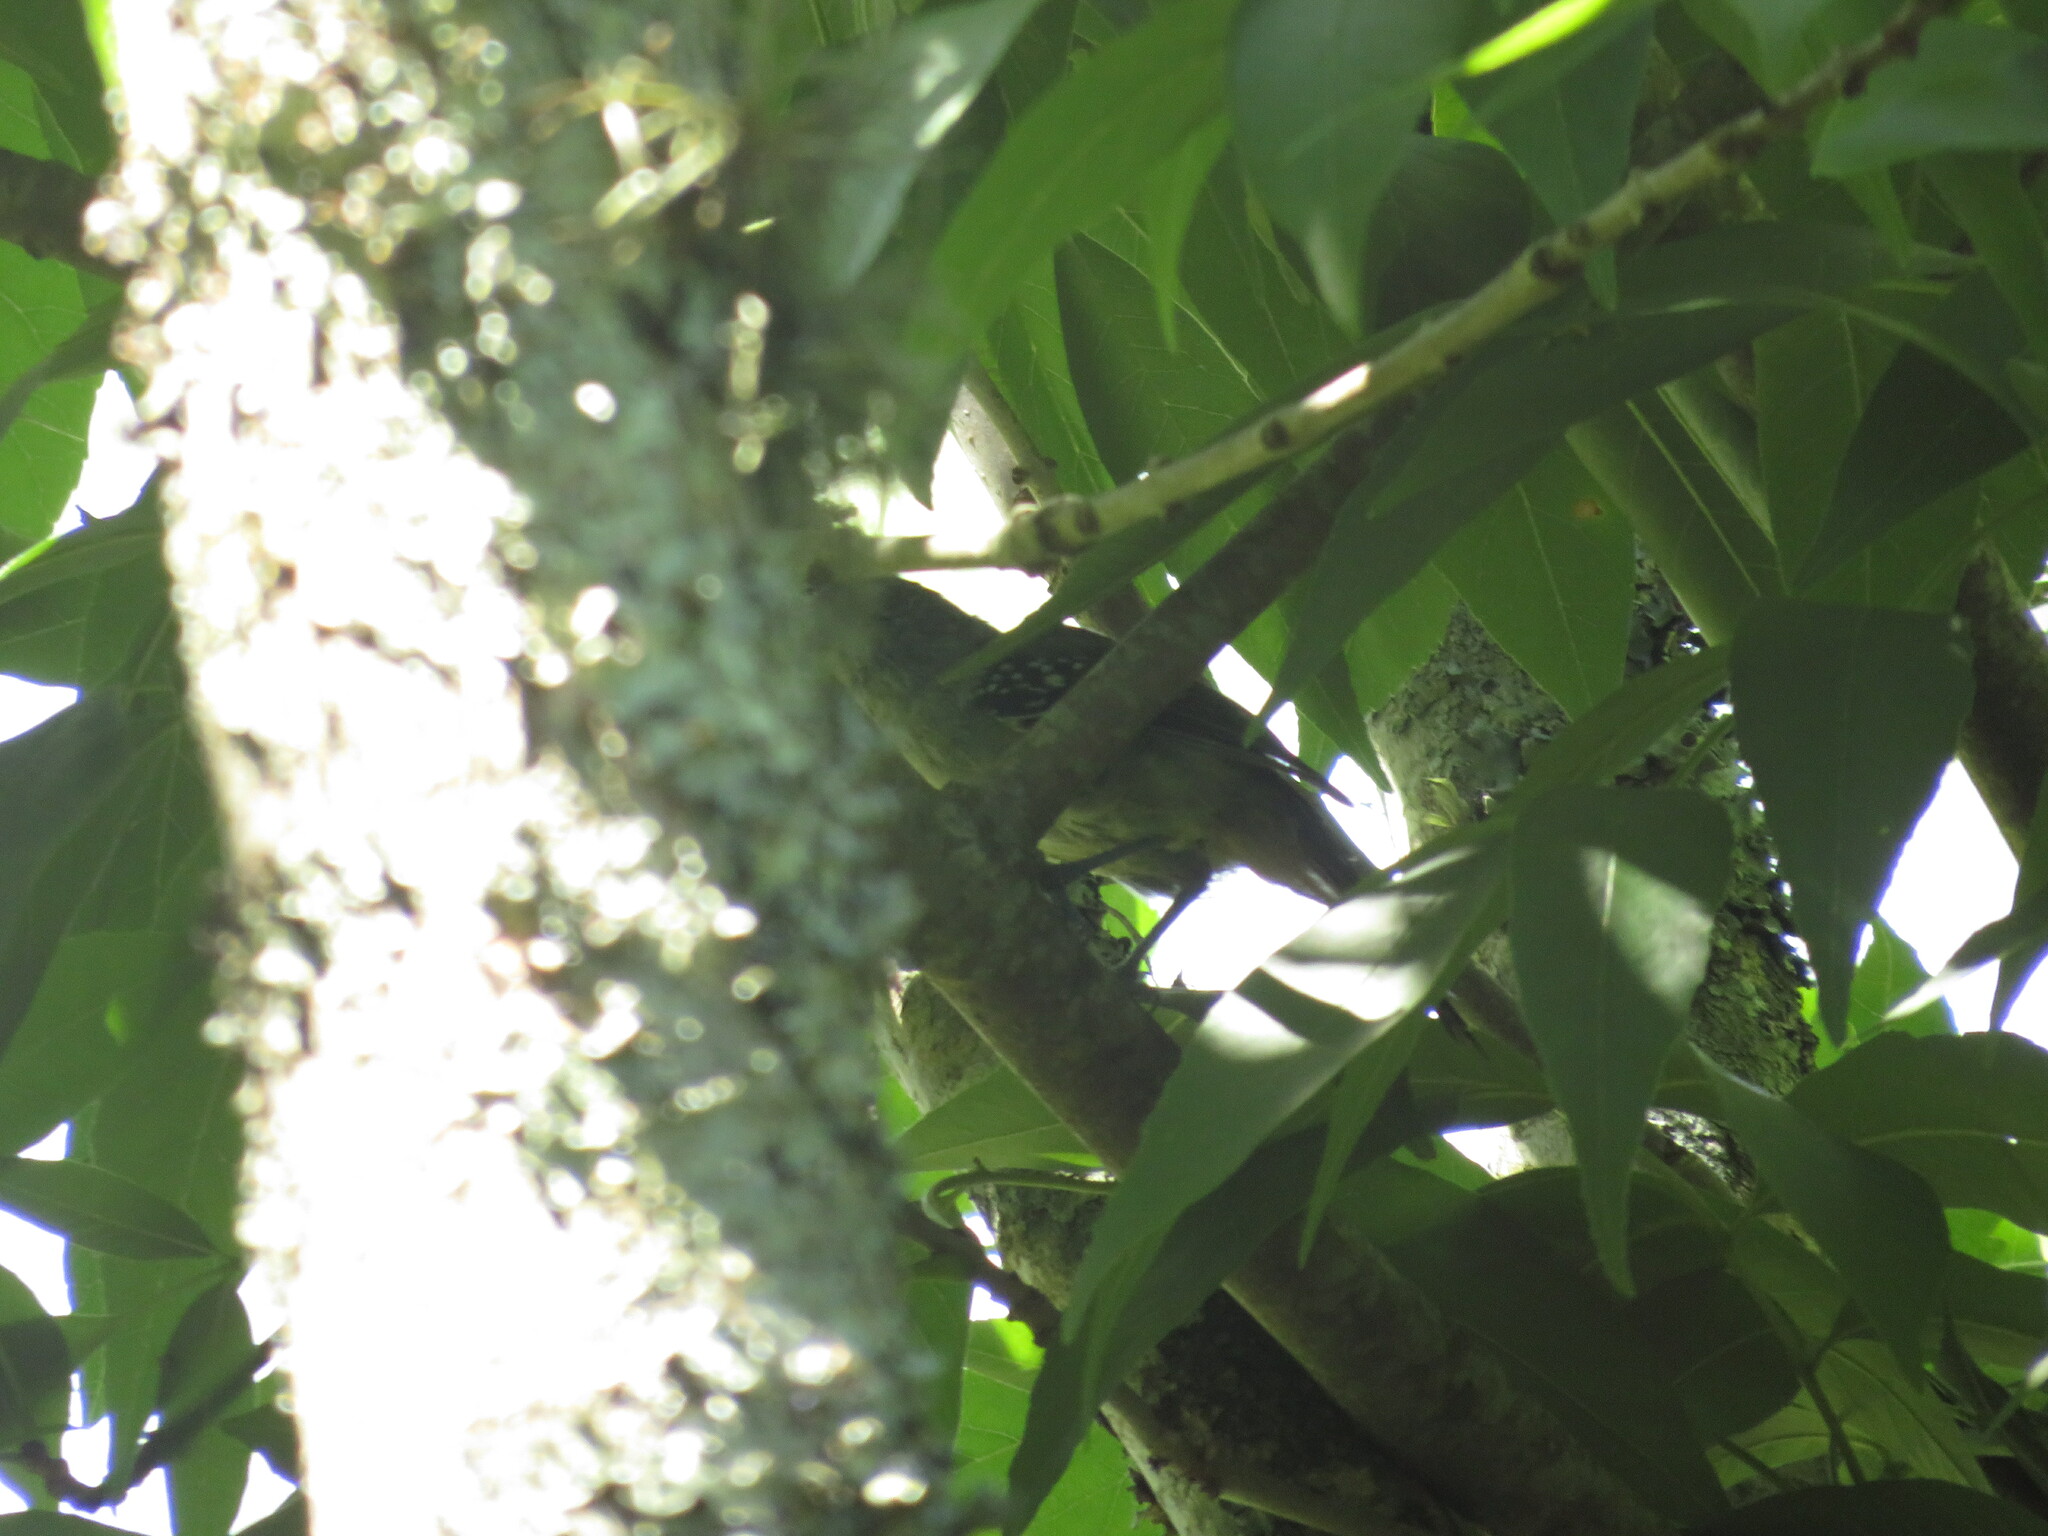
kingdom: Animalia
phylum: Chordata
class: Aves
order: Passeriformes
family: Thamnophilidae
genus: Thamnophilus
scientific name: Thamnophilus caerulescens
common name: Variable antshrike
